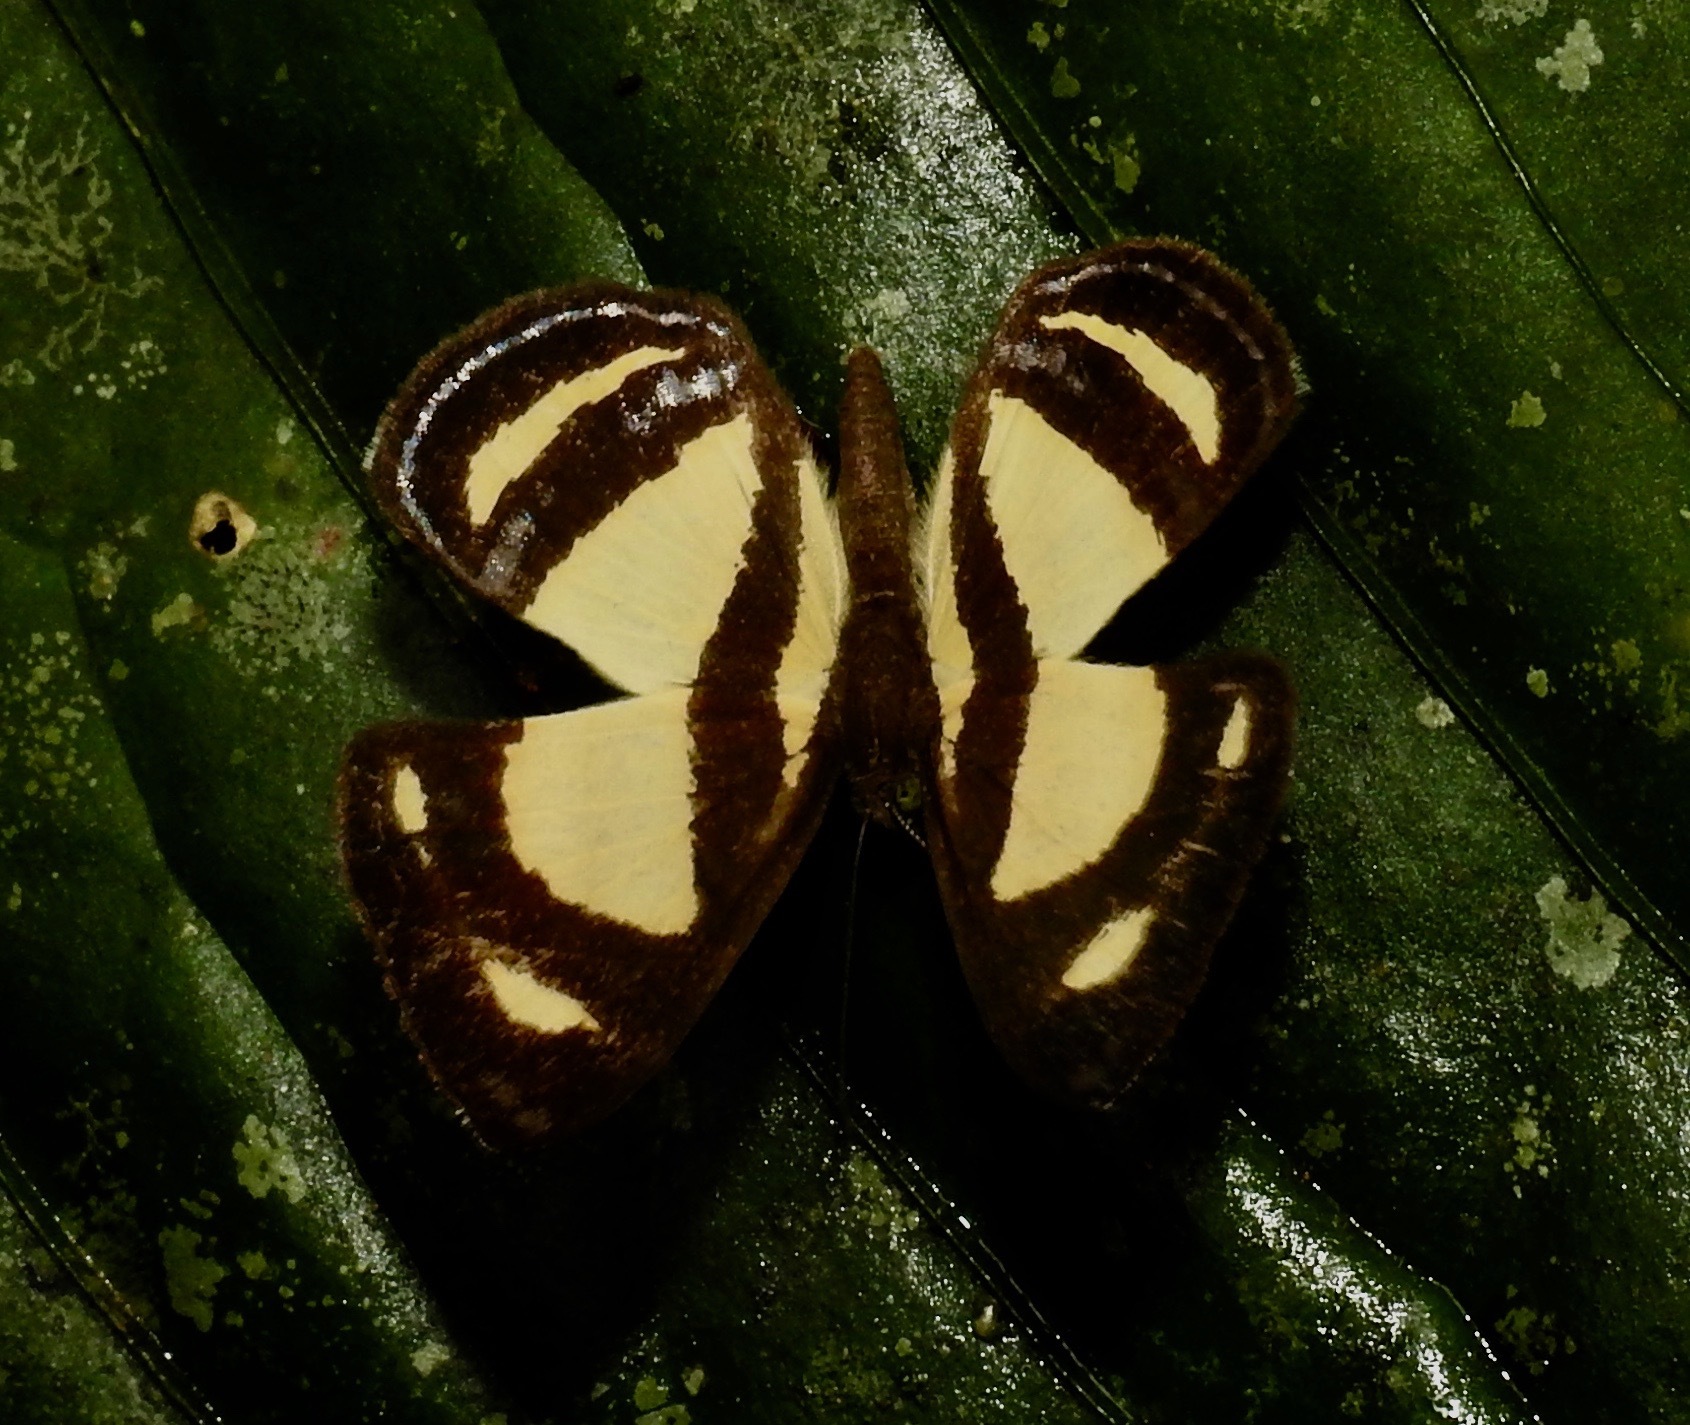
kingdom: Animalia
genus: Baeotis
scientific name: Baeotis nesaea
